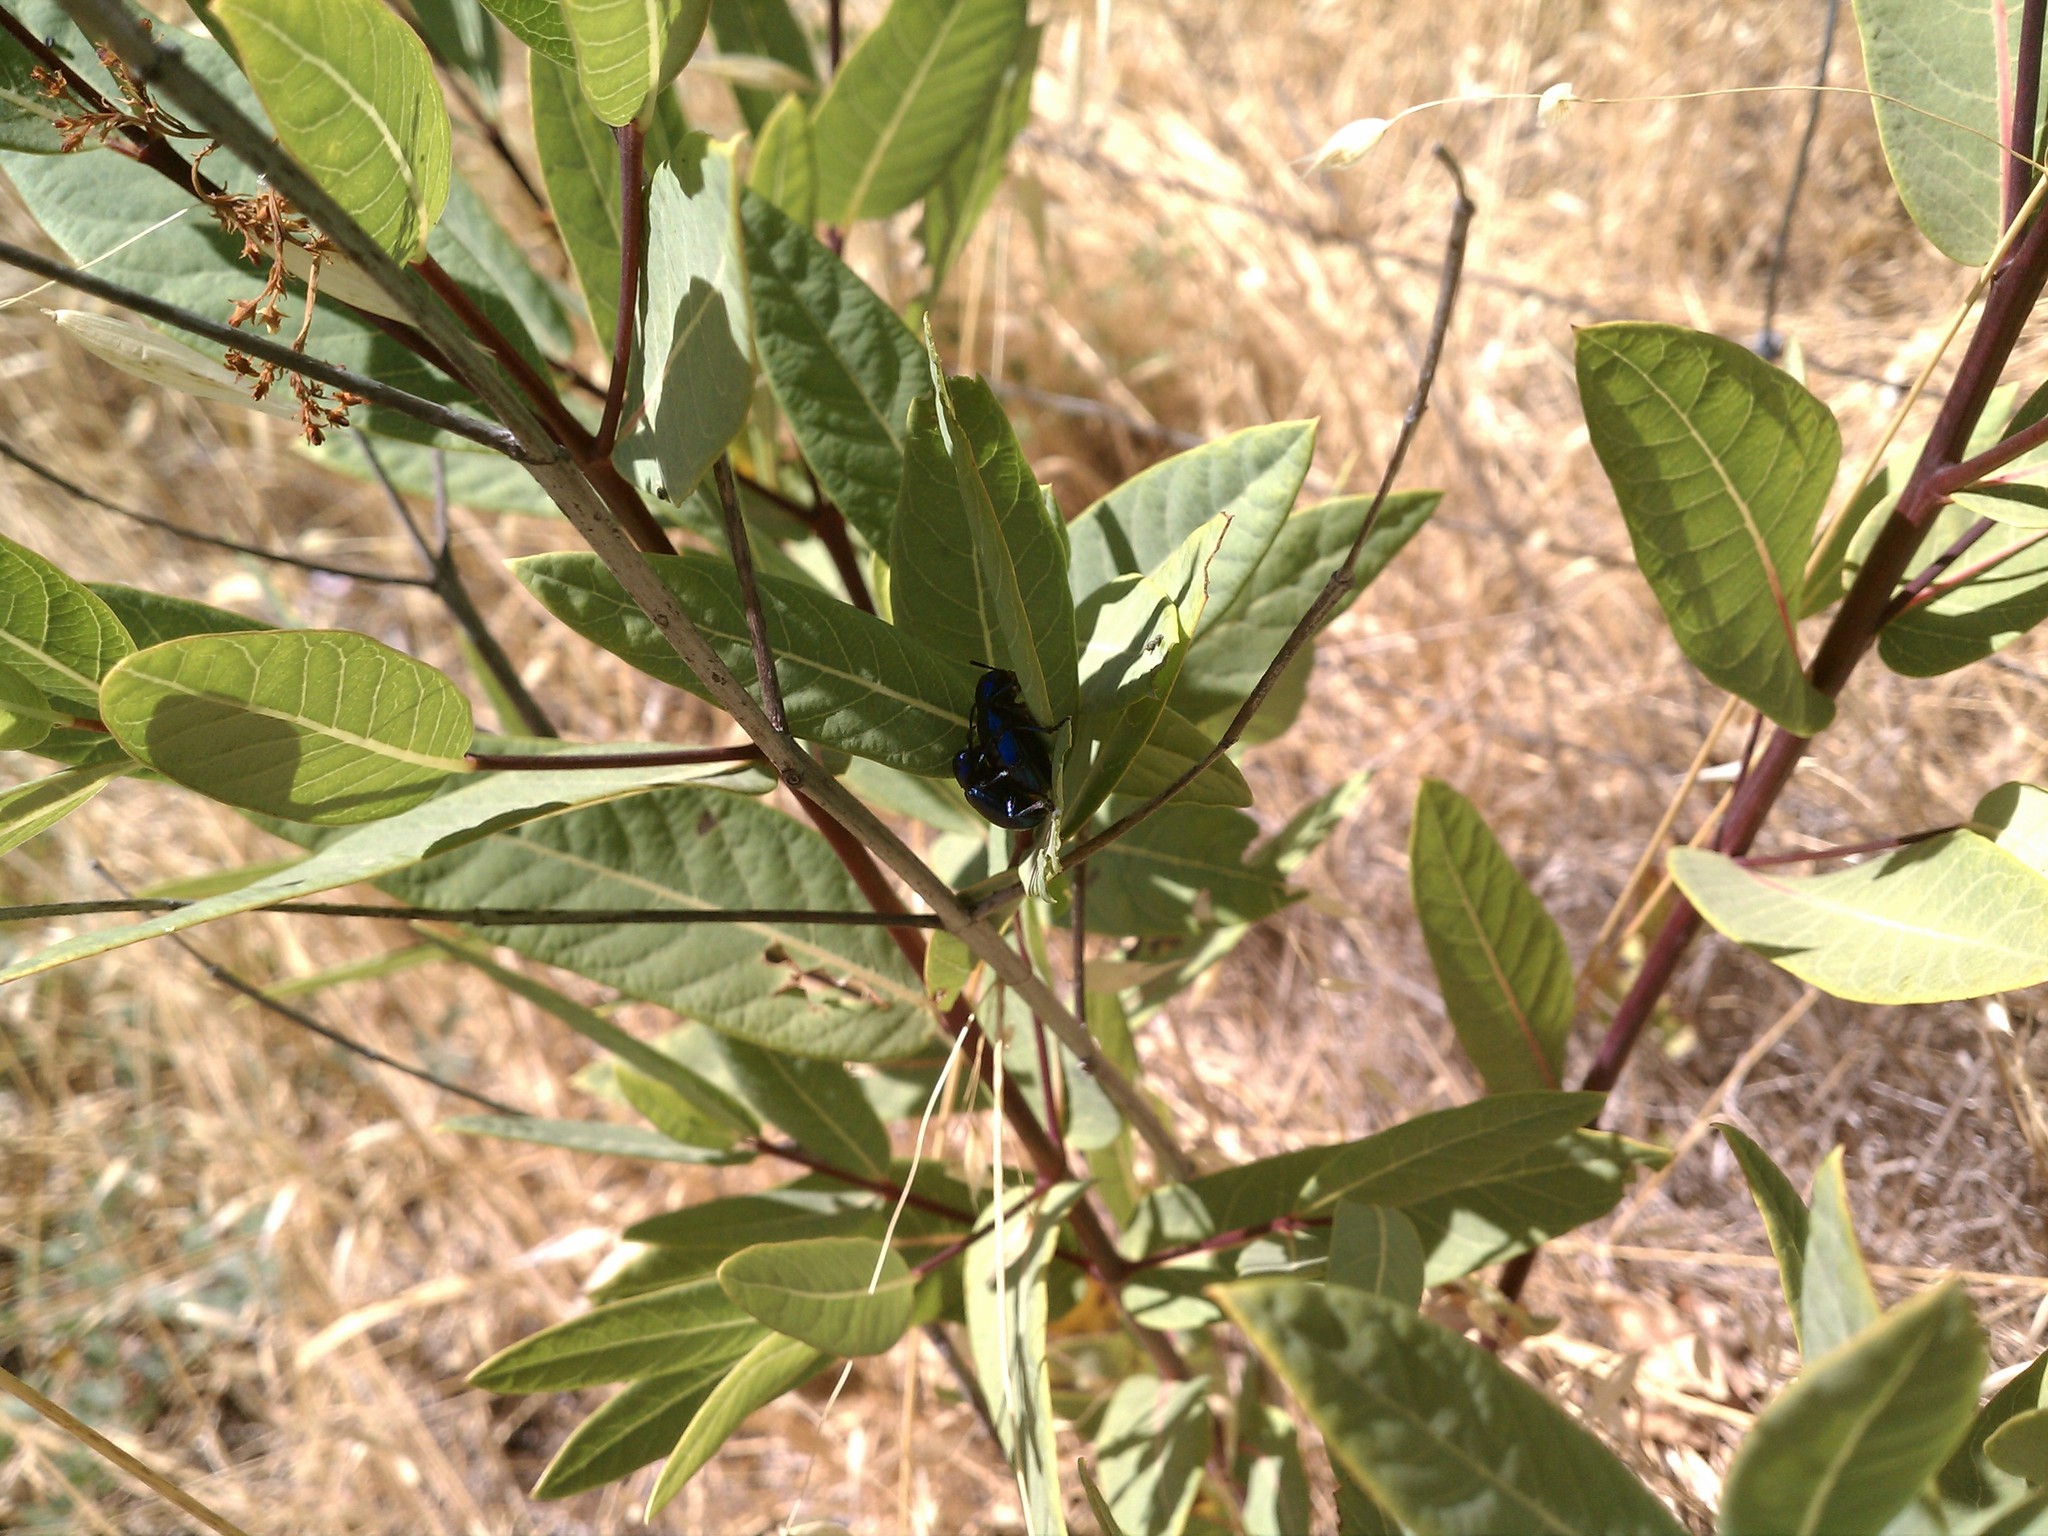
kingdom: Animalia
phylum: Arthropoda
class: Insecta
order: Coleoptera
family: Chrysomelidae
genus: Chrysochus
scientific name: Chrysochus cobaltinus
